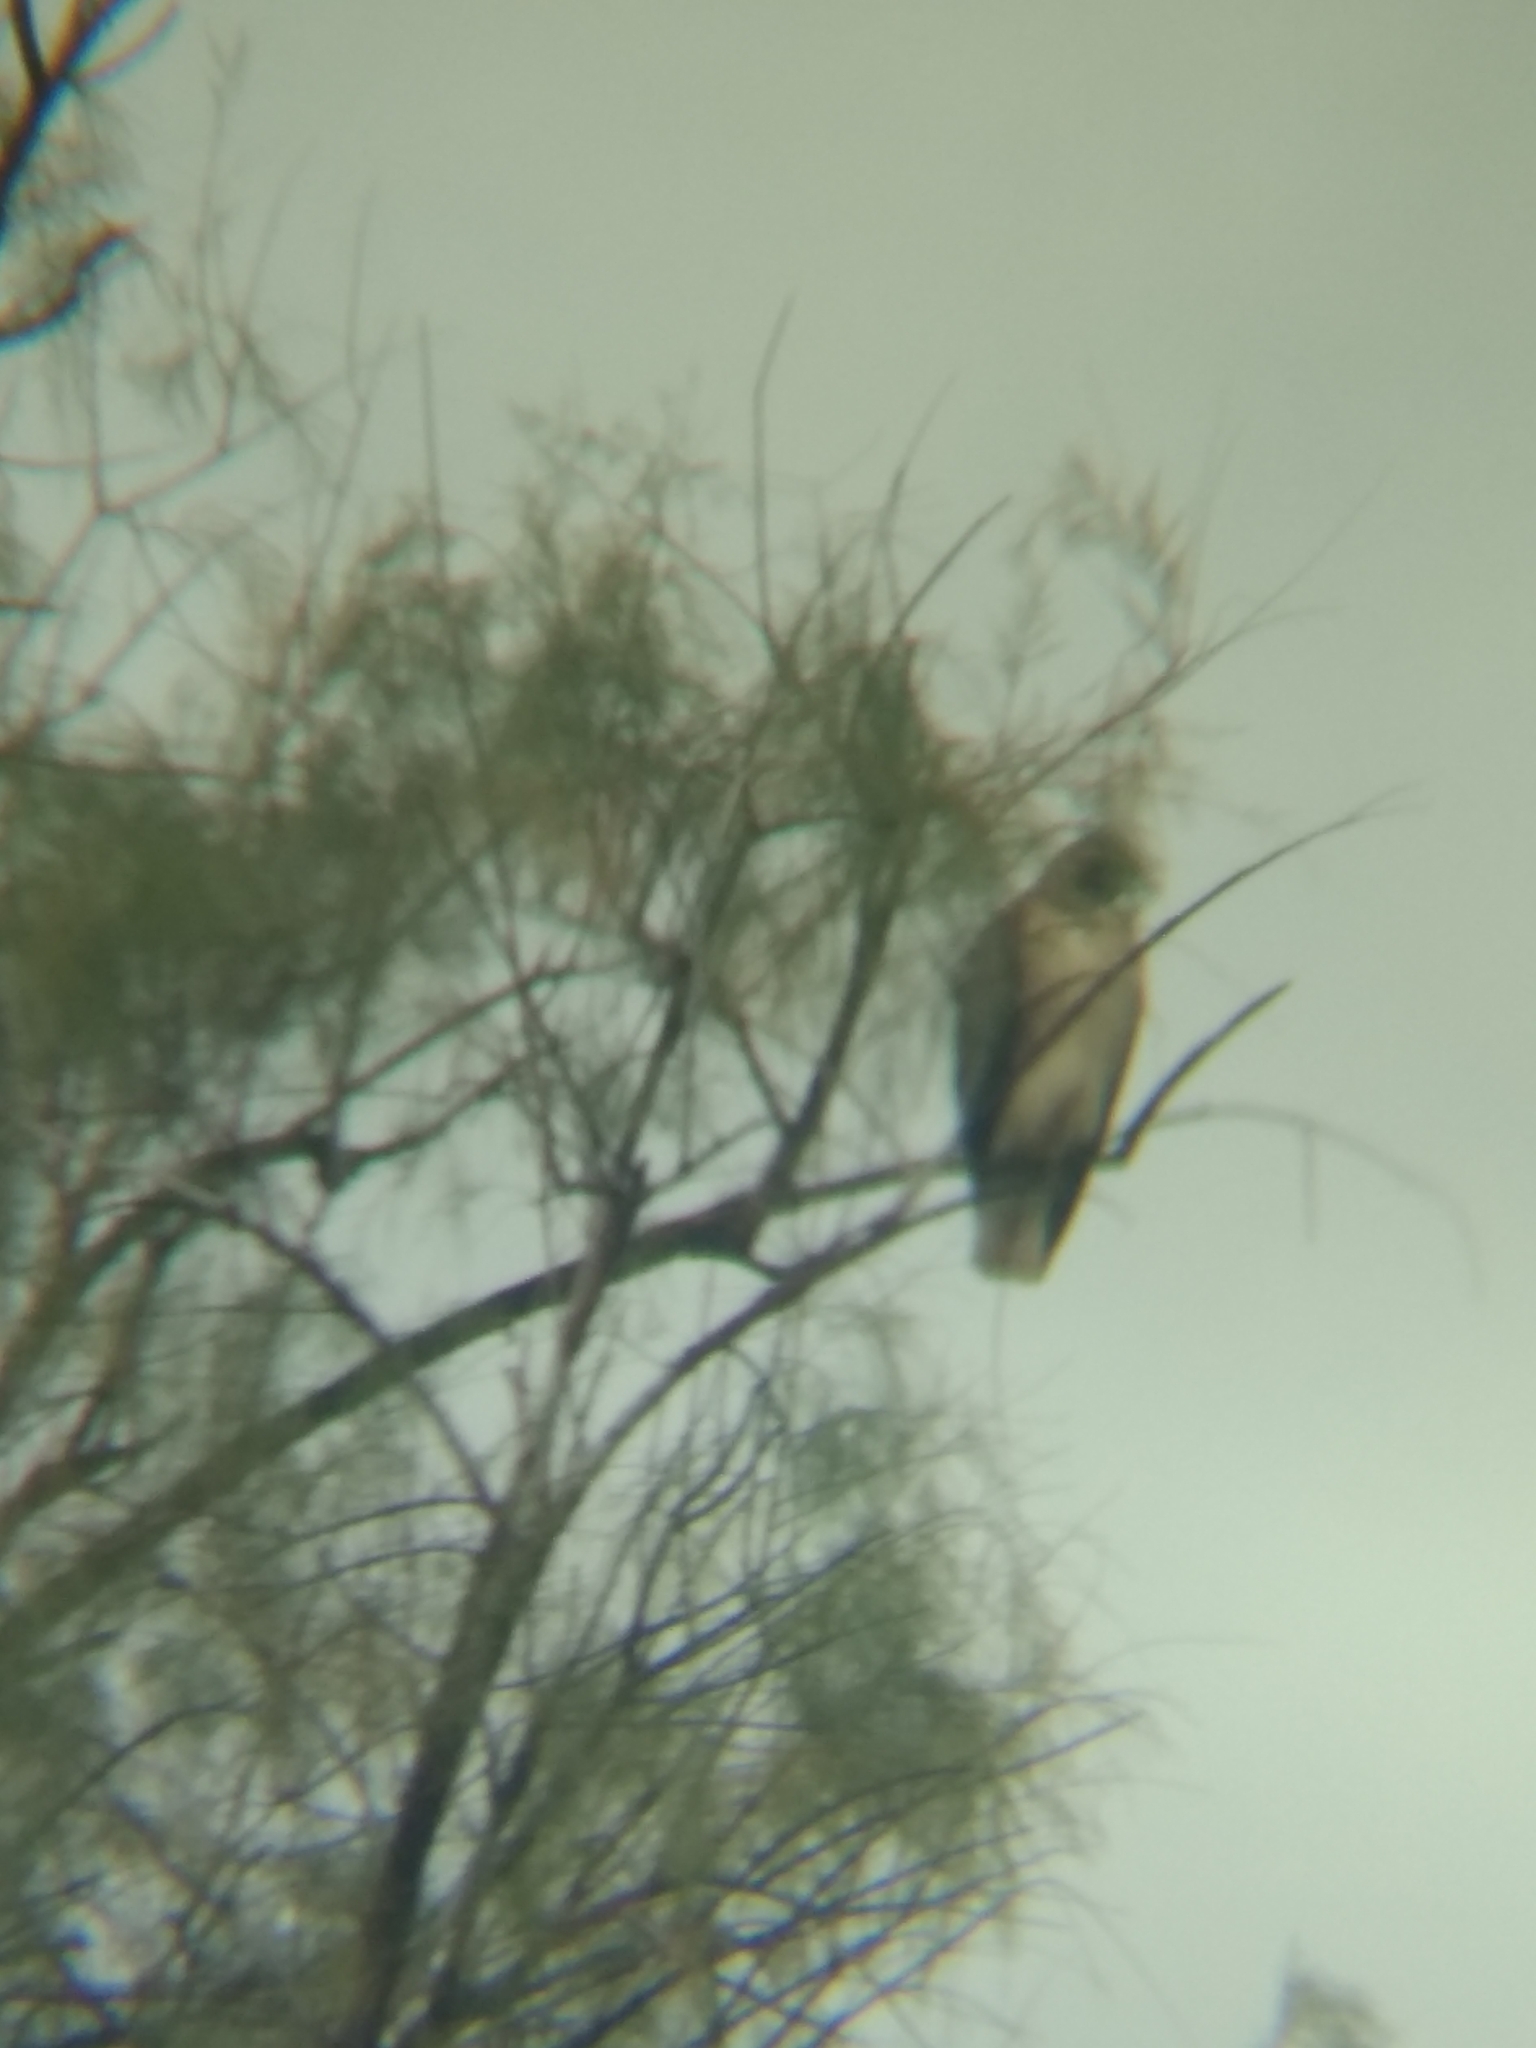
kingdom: Animalia
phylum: Chordata
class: Aves
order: Accipitriformes
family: Accipitridae
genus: Buteo
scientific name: Buteo jamaicensis
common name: Red-tailed hawk
